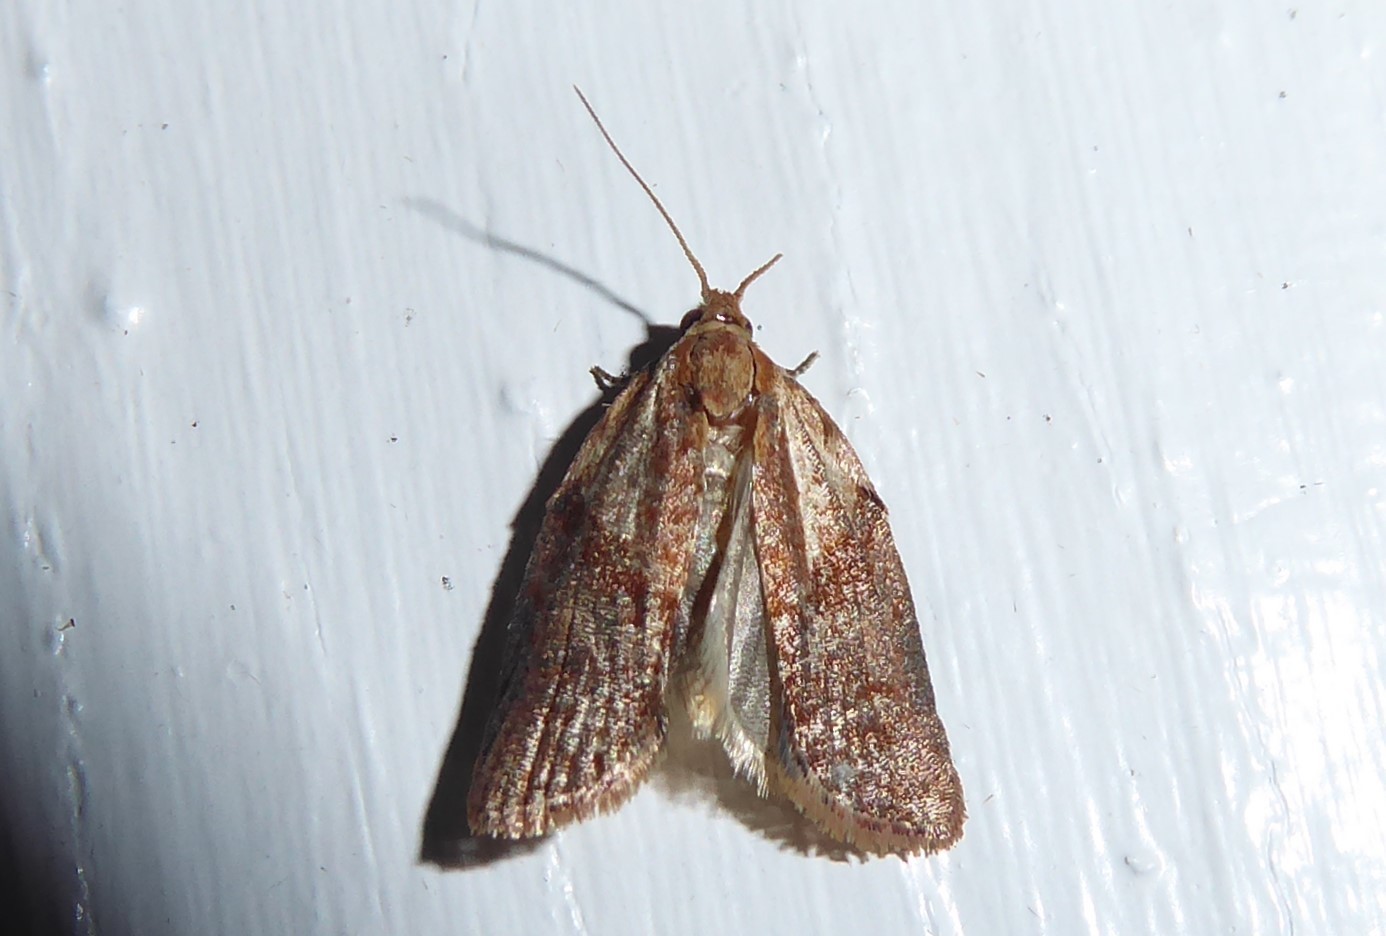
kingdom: Animalia
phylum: Arthropoda
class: Insecta
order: Lepidoptera
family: Tortricidae
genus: Epiphyas
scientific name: Epiphyas postvittana
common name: Light brown apple moth
